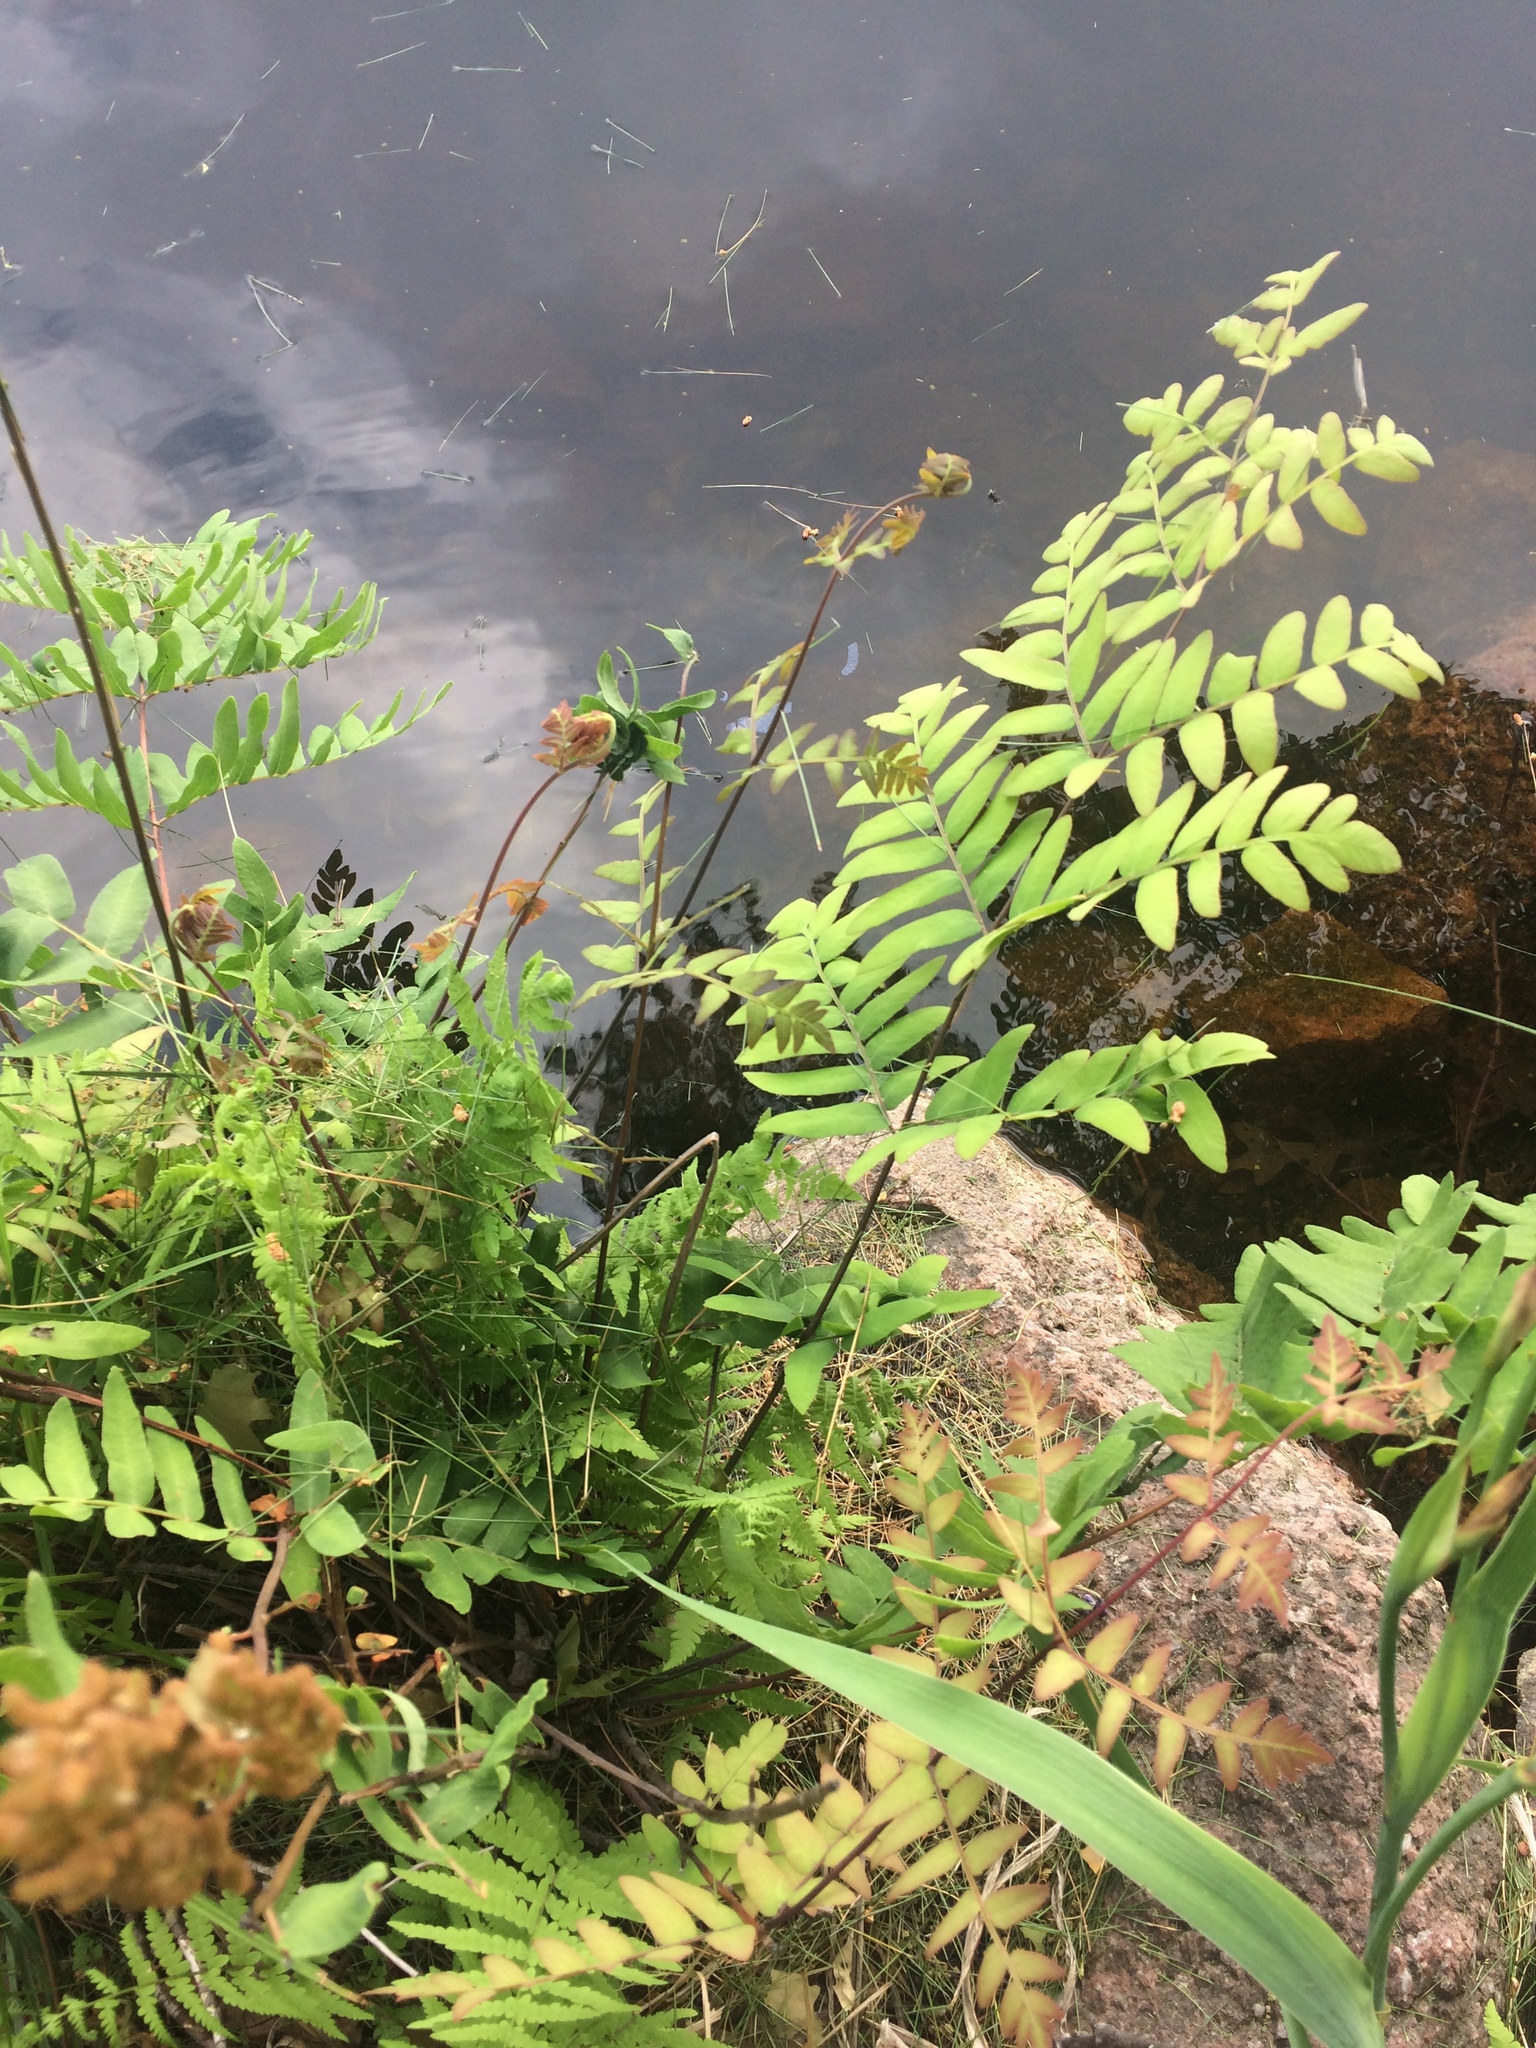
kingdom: Plantae
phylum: Tracheophyta
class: Polypodiopsida
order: Osmundales
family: Osmundaceae
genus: Osmunda
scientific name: Osmunda spectabilis
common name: American royal fern
